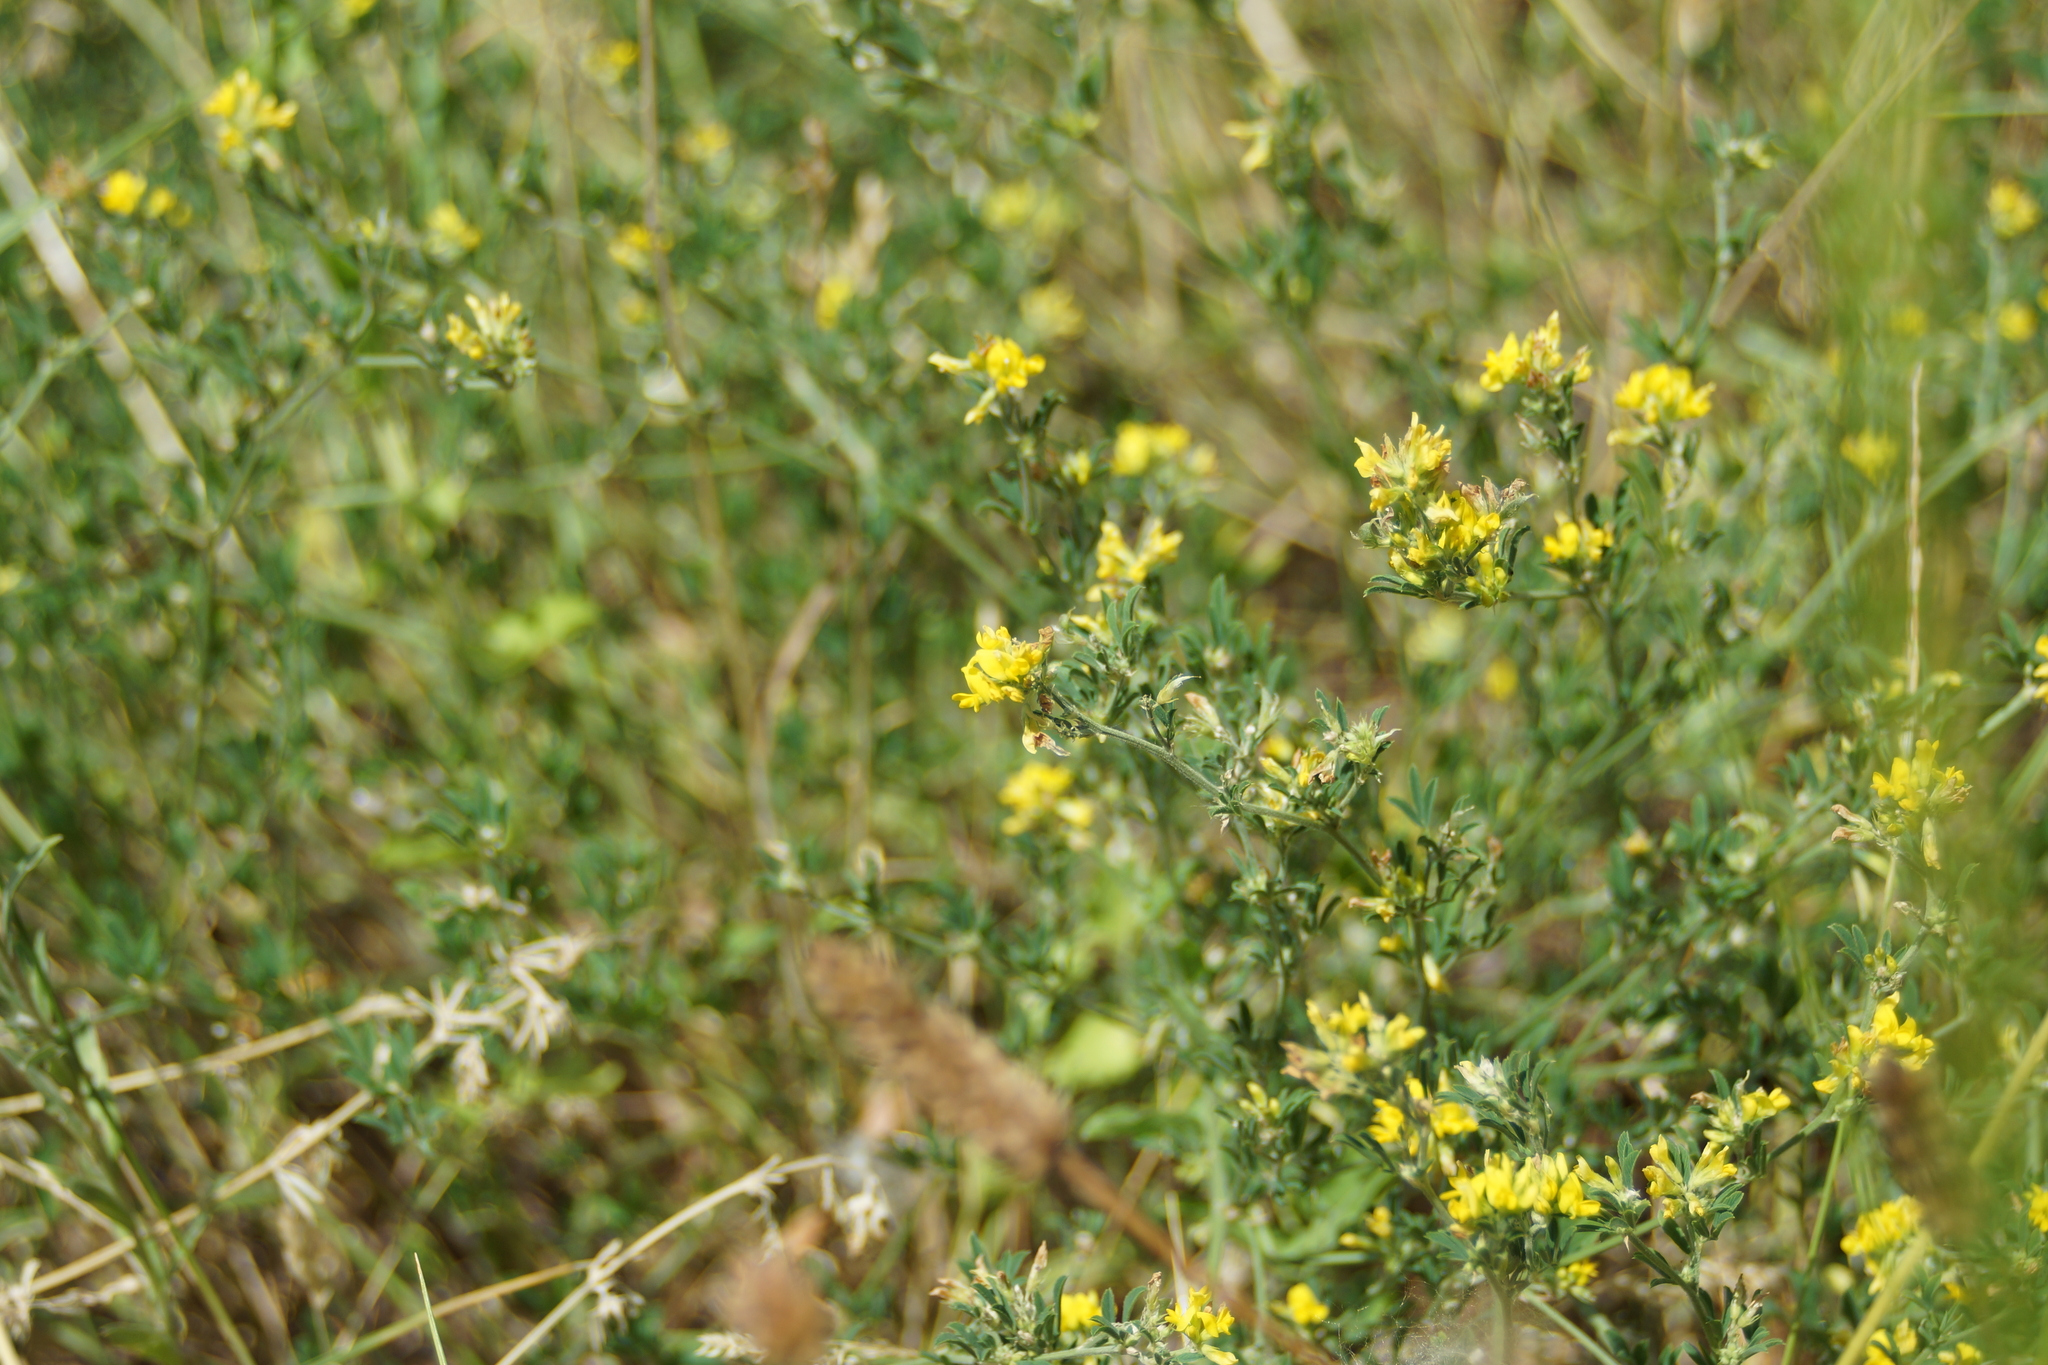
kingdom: Plantae
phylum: Tracheophyta
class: Magnoliopsida
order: Fabales
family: Fabaceae
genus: Medicago
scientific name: Medicago falcata
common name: Sickle medick
